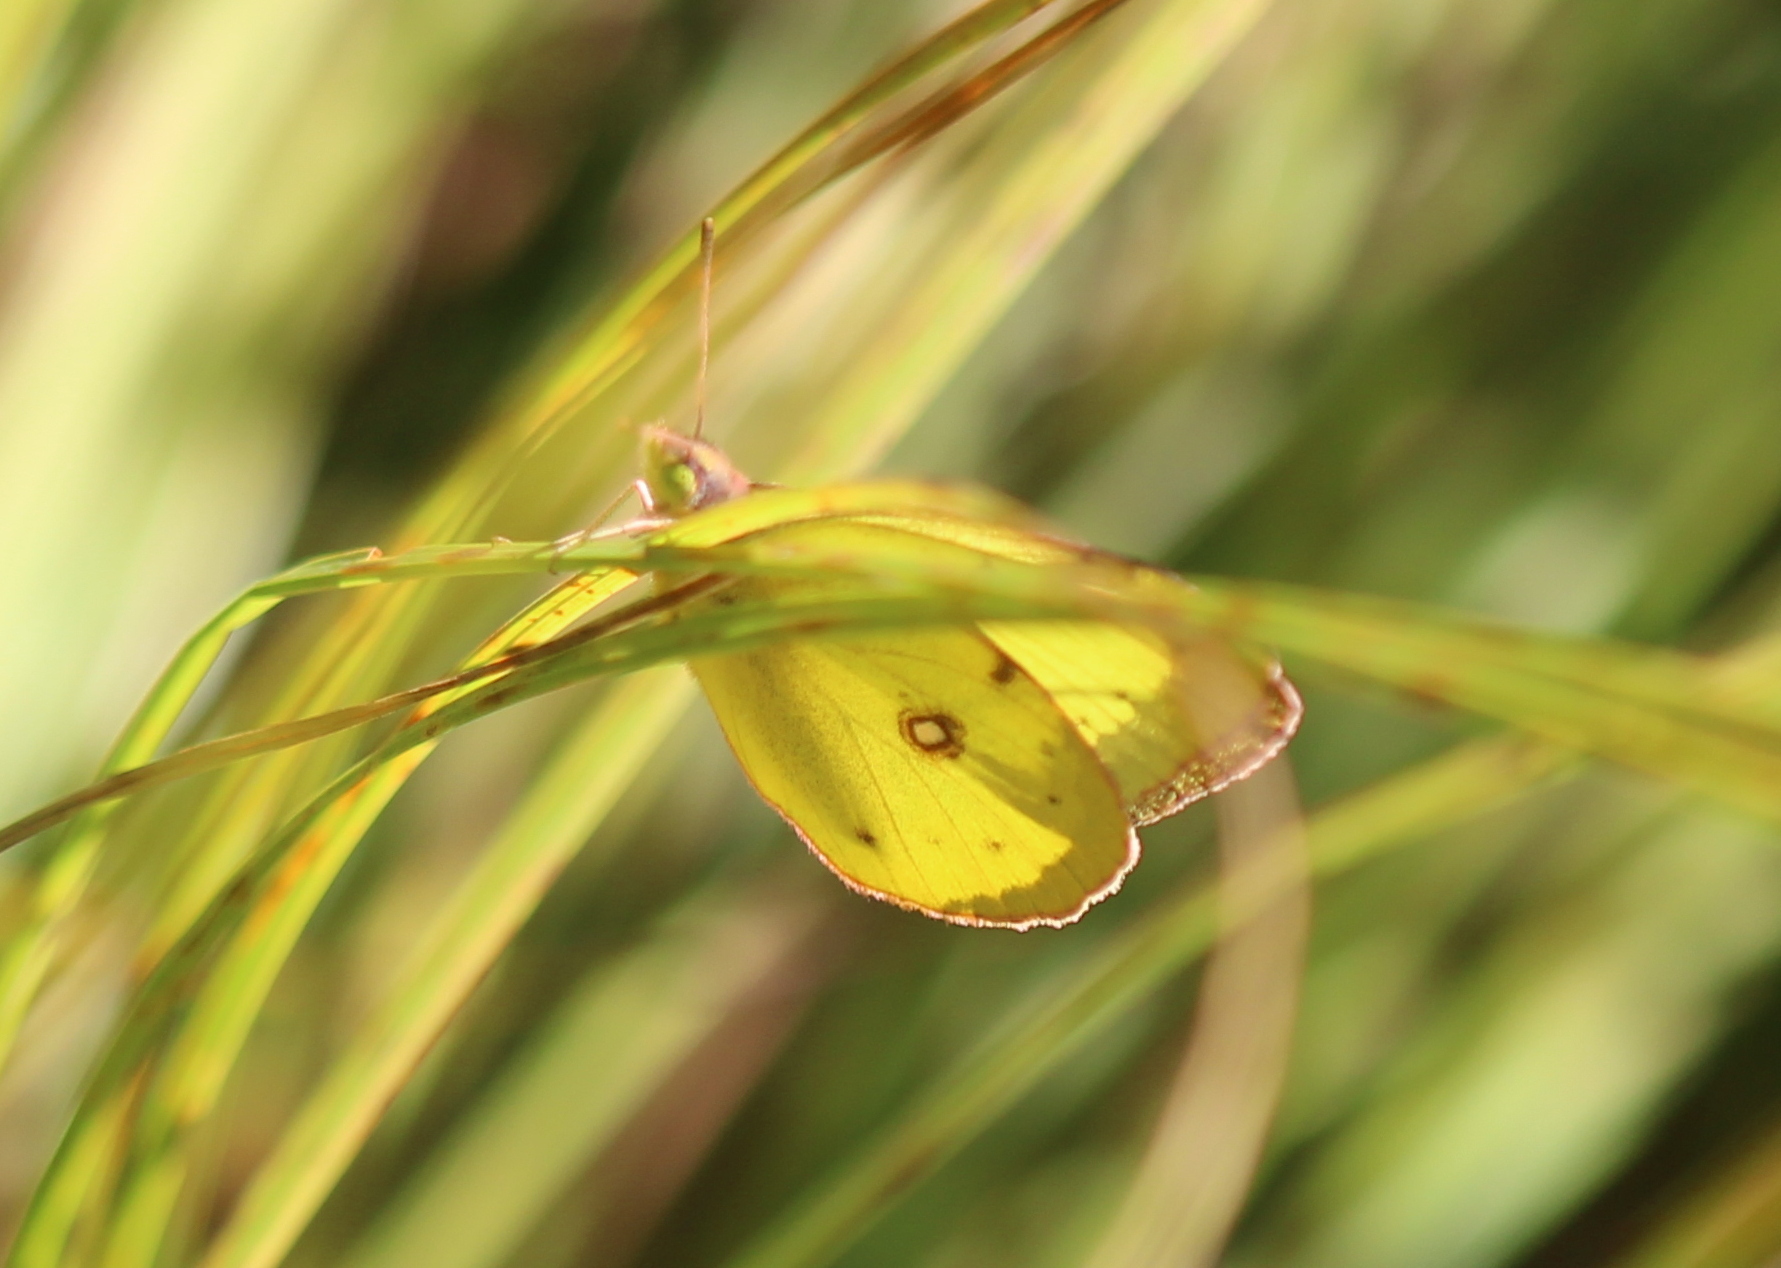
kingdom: Animalia
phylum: Arthropoda
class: Insecta
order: Lepidoptera
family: Pieridae
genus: Colias
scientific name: Colias philodice
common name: Clouded sulphur
